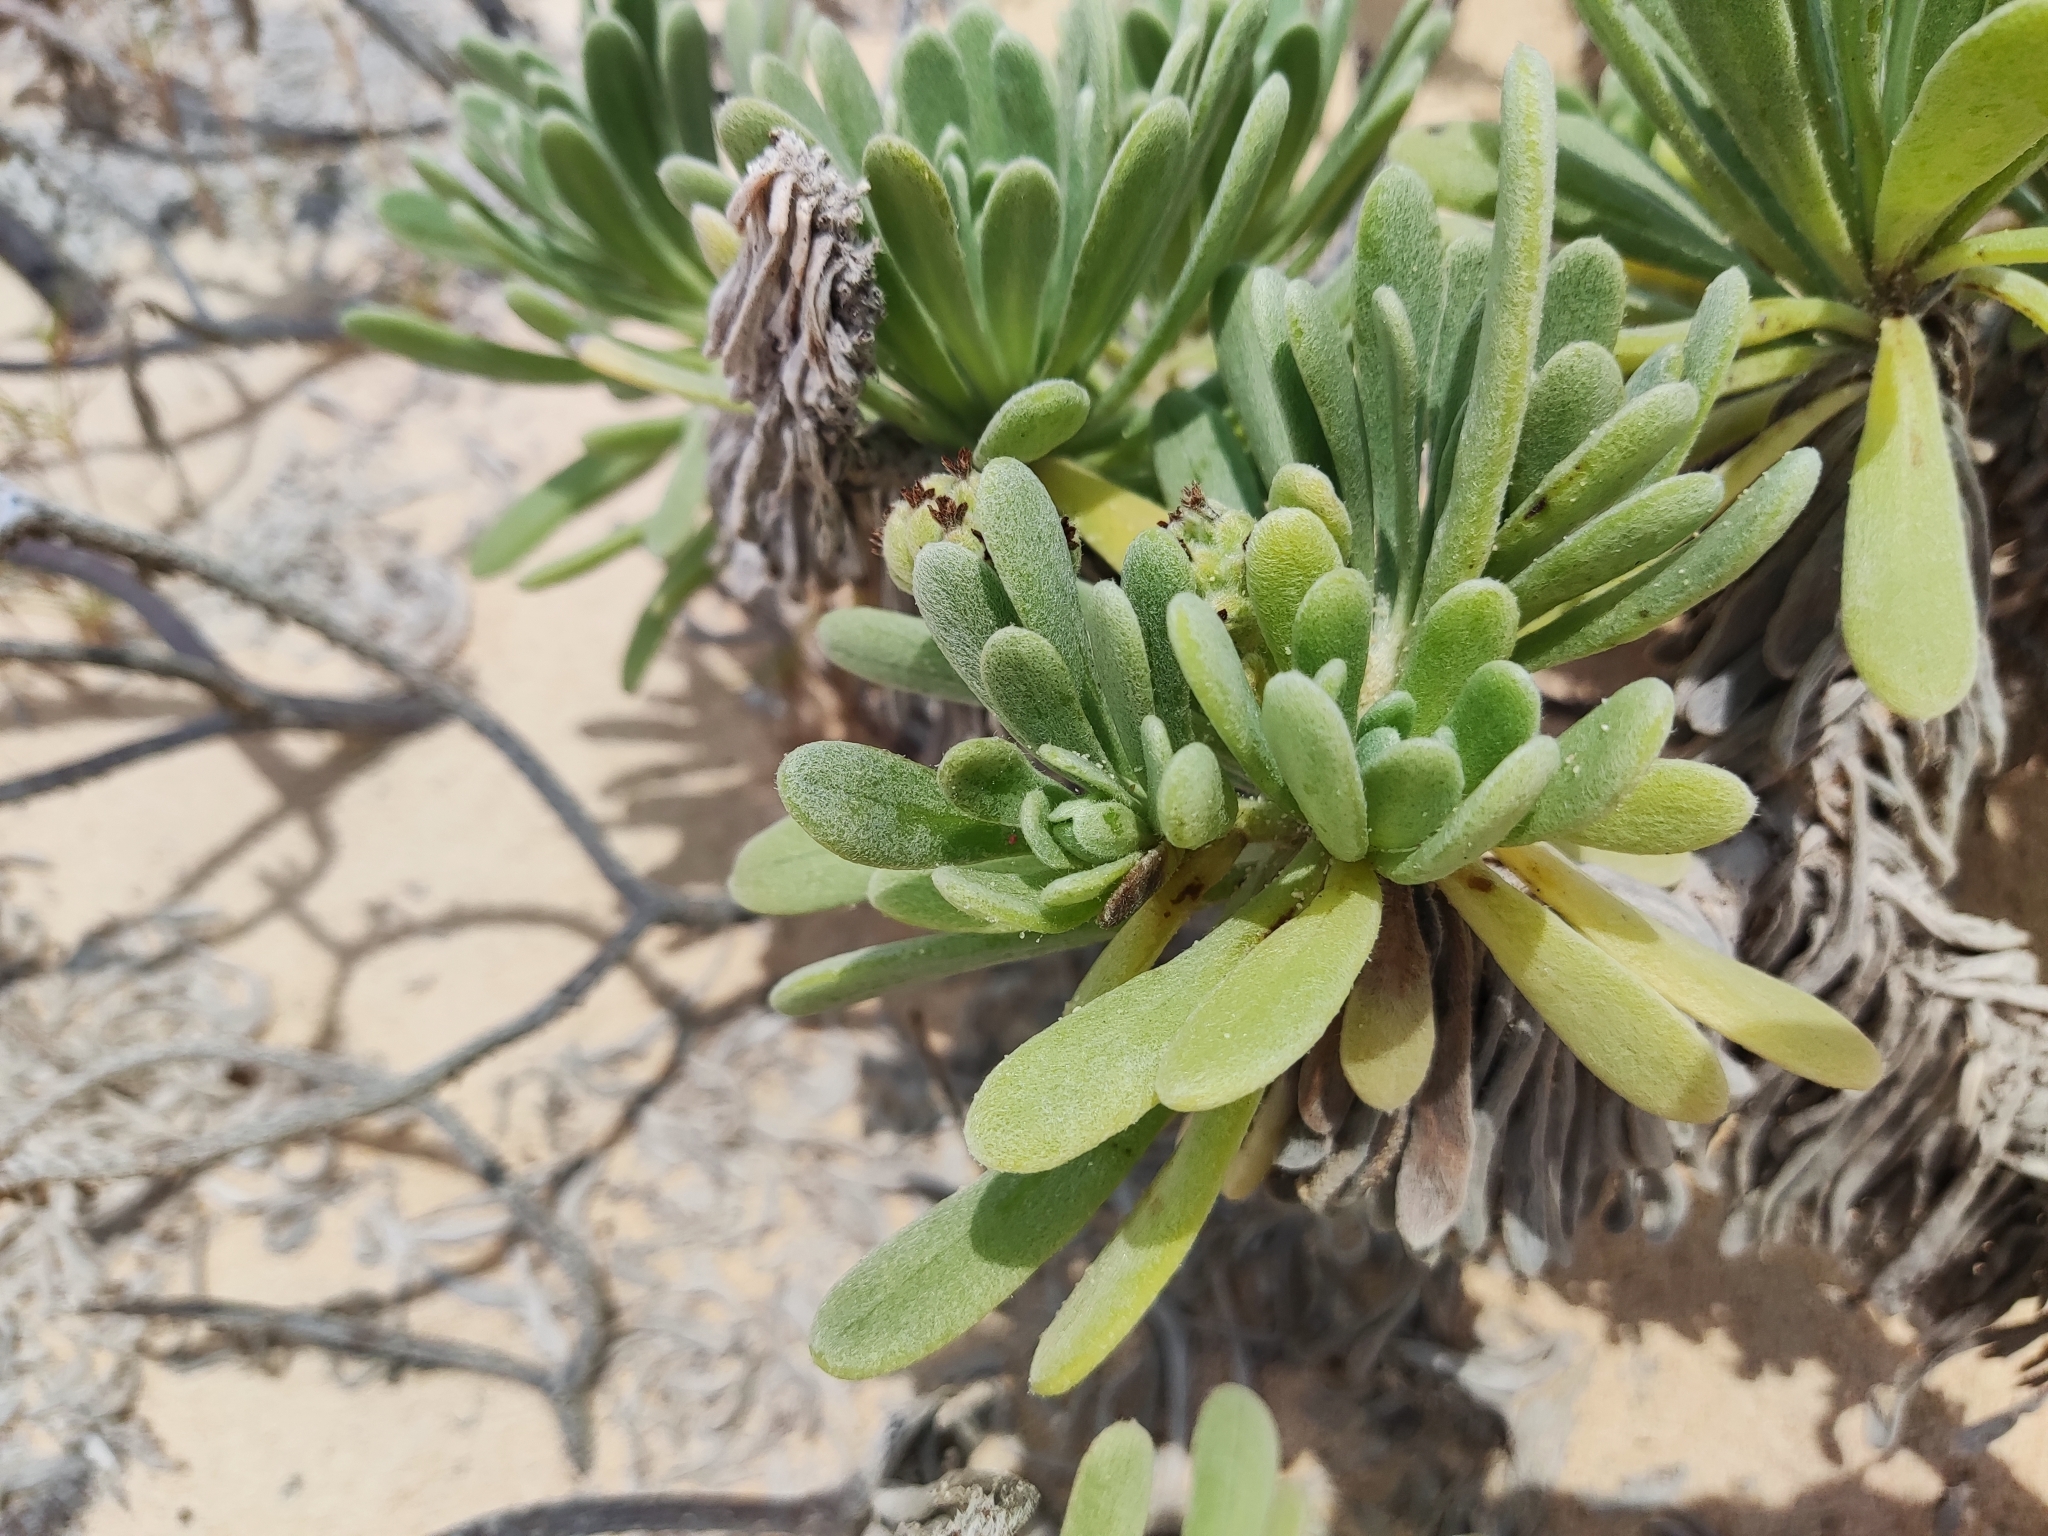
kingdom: Plantae
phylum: Tracheophyta
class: Magnoliopsida
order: Boraginales
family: Heliotropiaceae
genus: Tournefortia
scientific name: Tournefortia gnaphalodes
